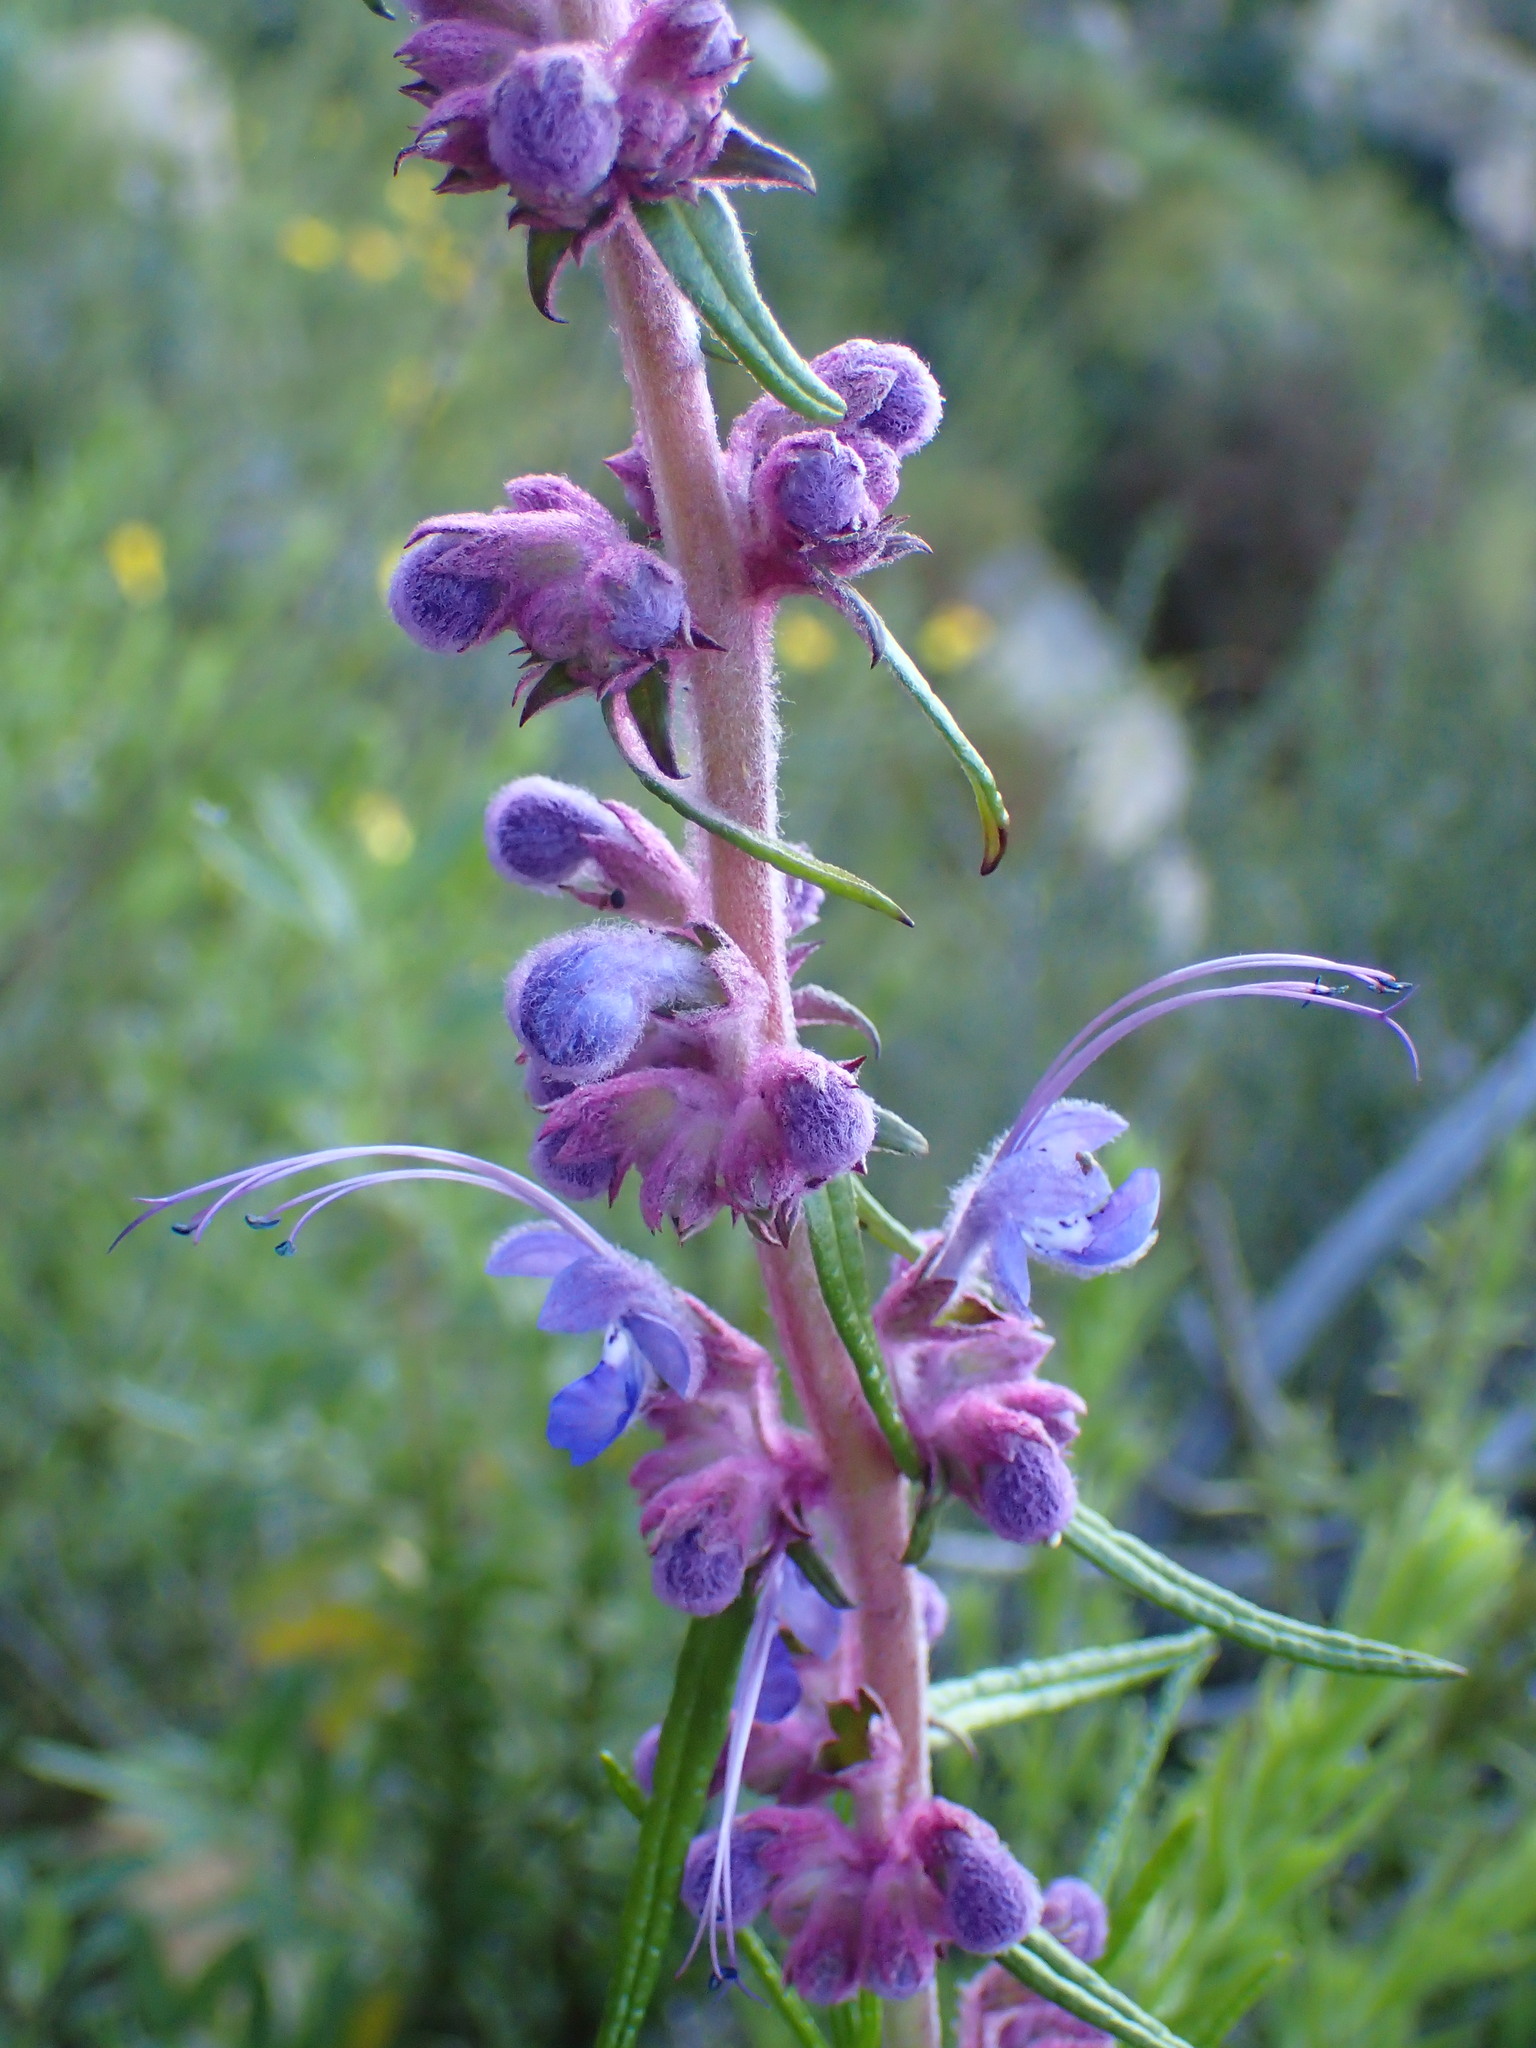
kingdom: Plantae
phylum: Tracheophyta
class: Magnoliopsida
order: Lamiales
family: Lamiaceae
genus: Trichostema
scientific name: Trichostema lanatum
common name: Woolly bluecurls
